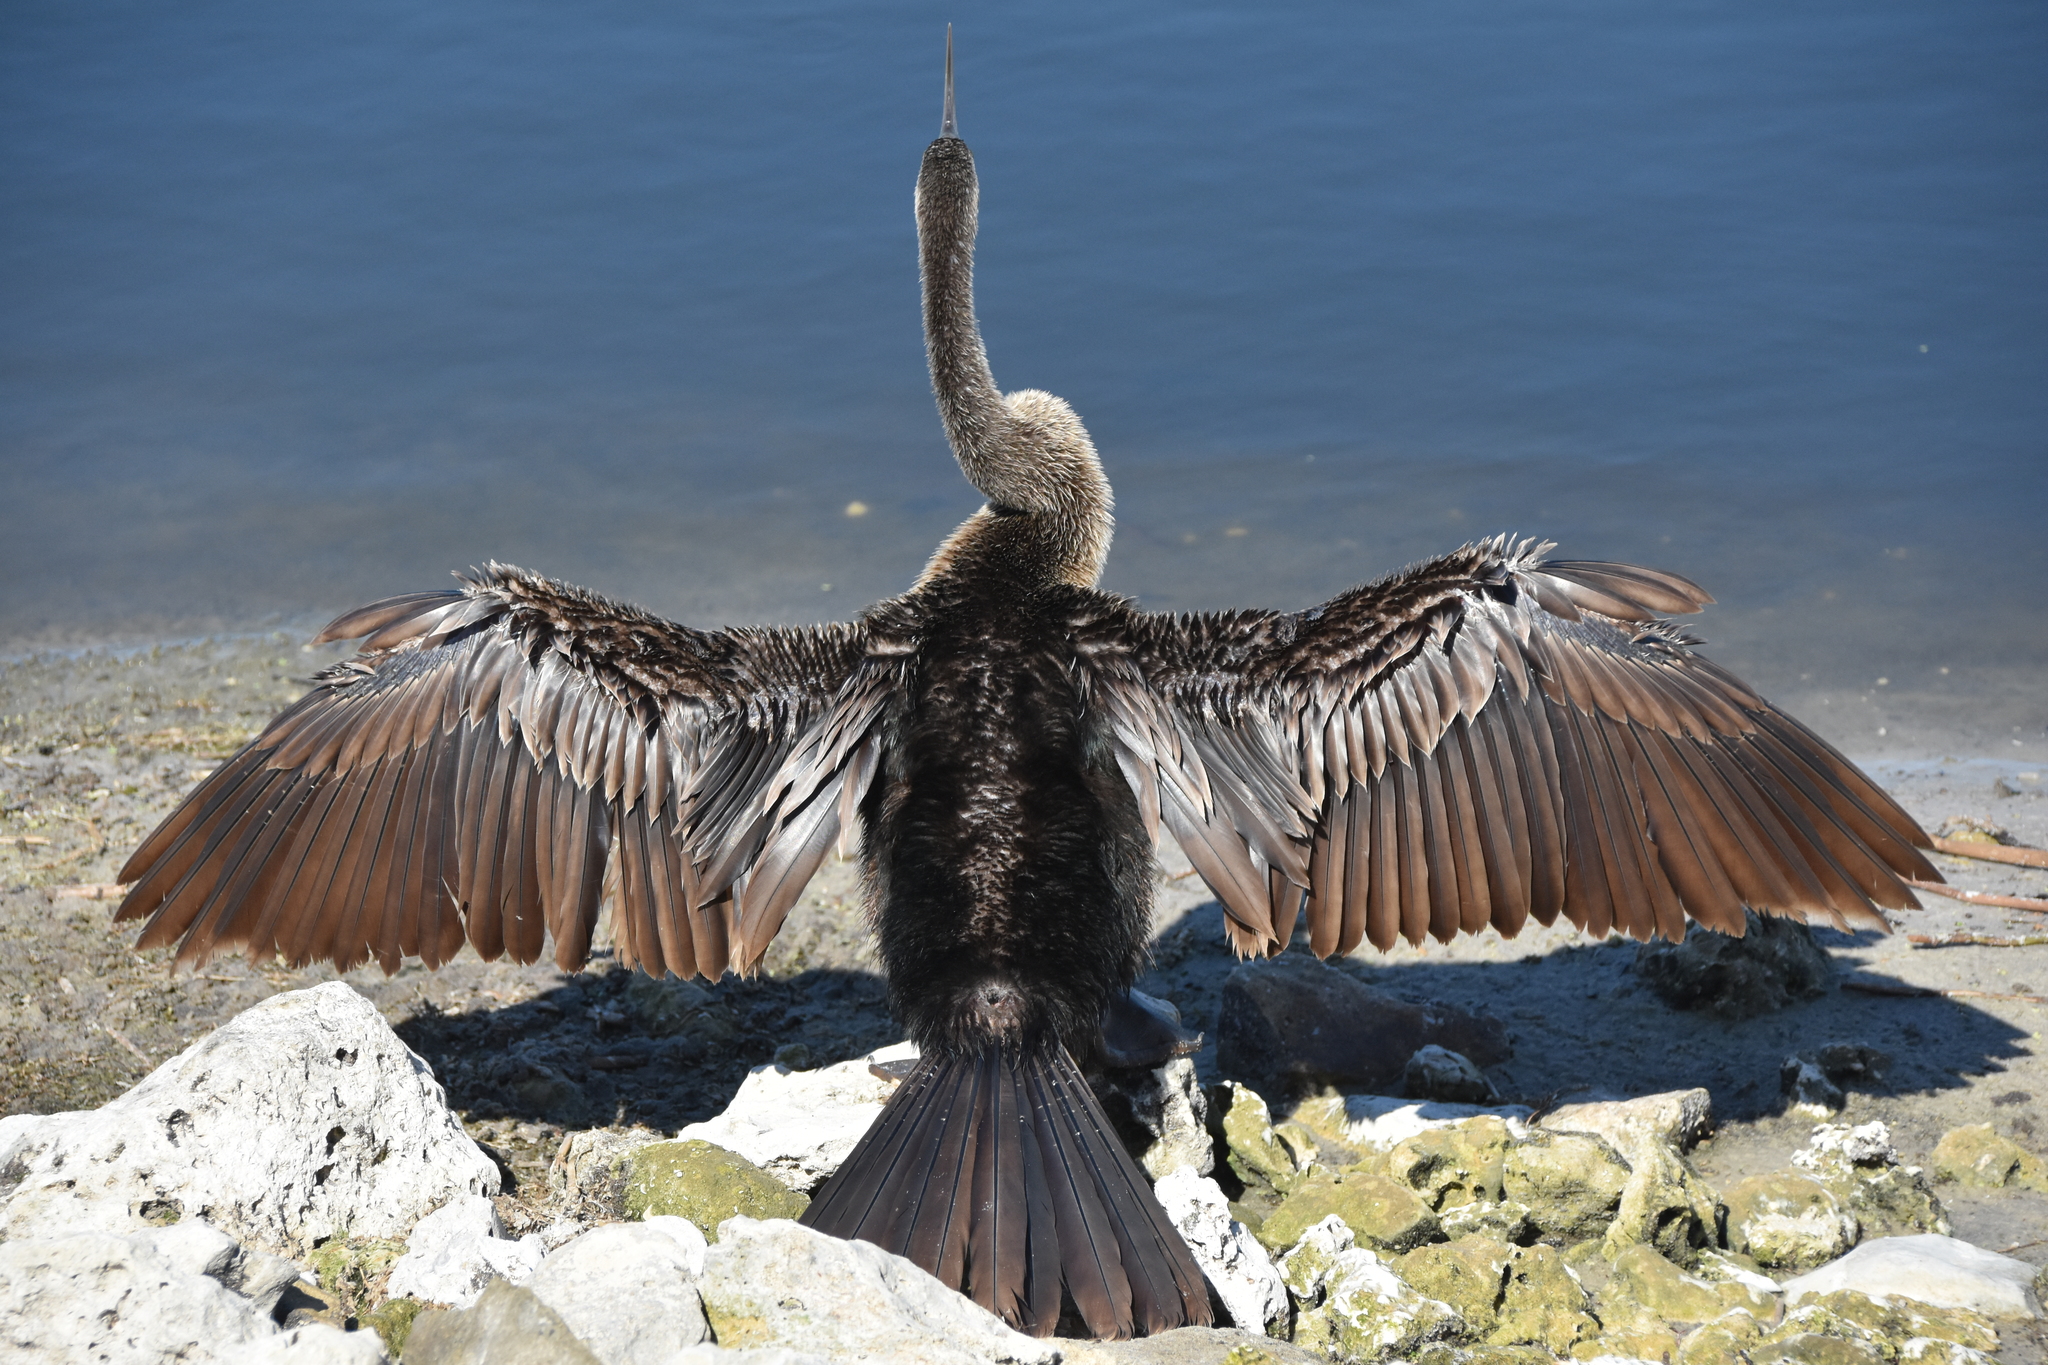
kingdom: Animalia
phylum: Chordata
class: Aves
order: Suliformes
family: Anhingidae
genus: Anhinga
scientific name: Anhinga anhinga
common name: Anhinga
